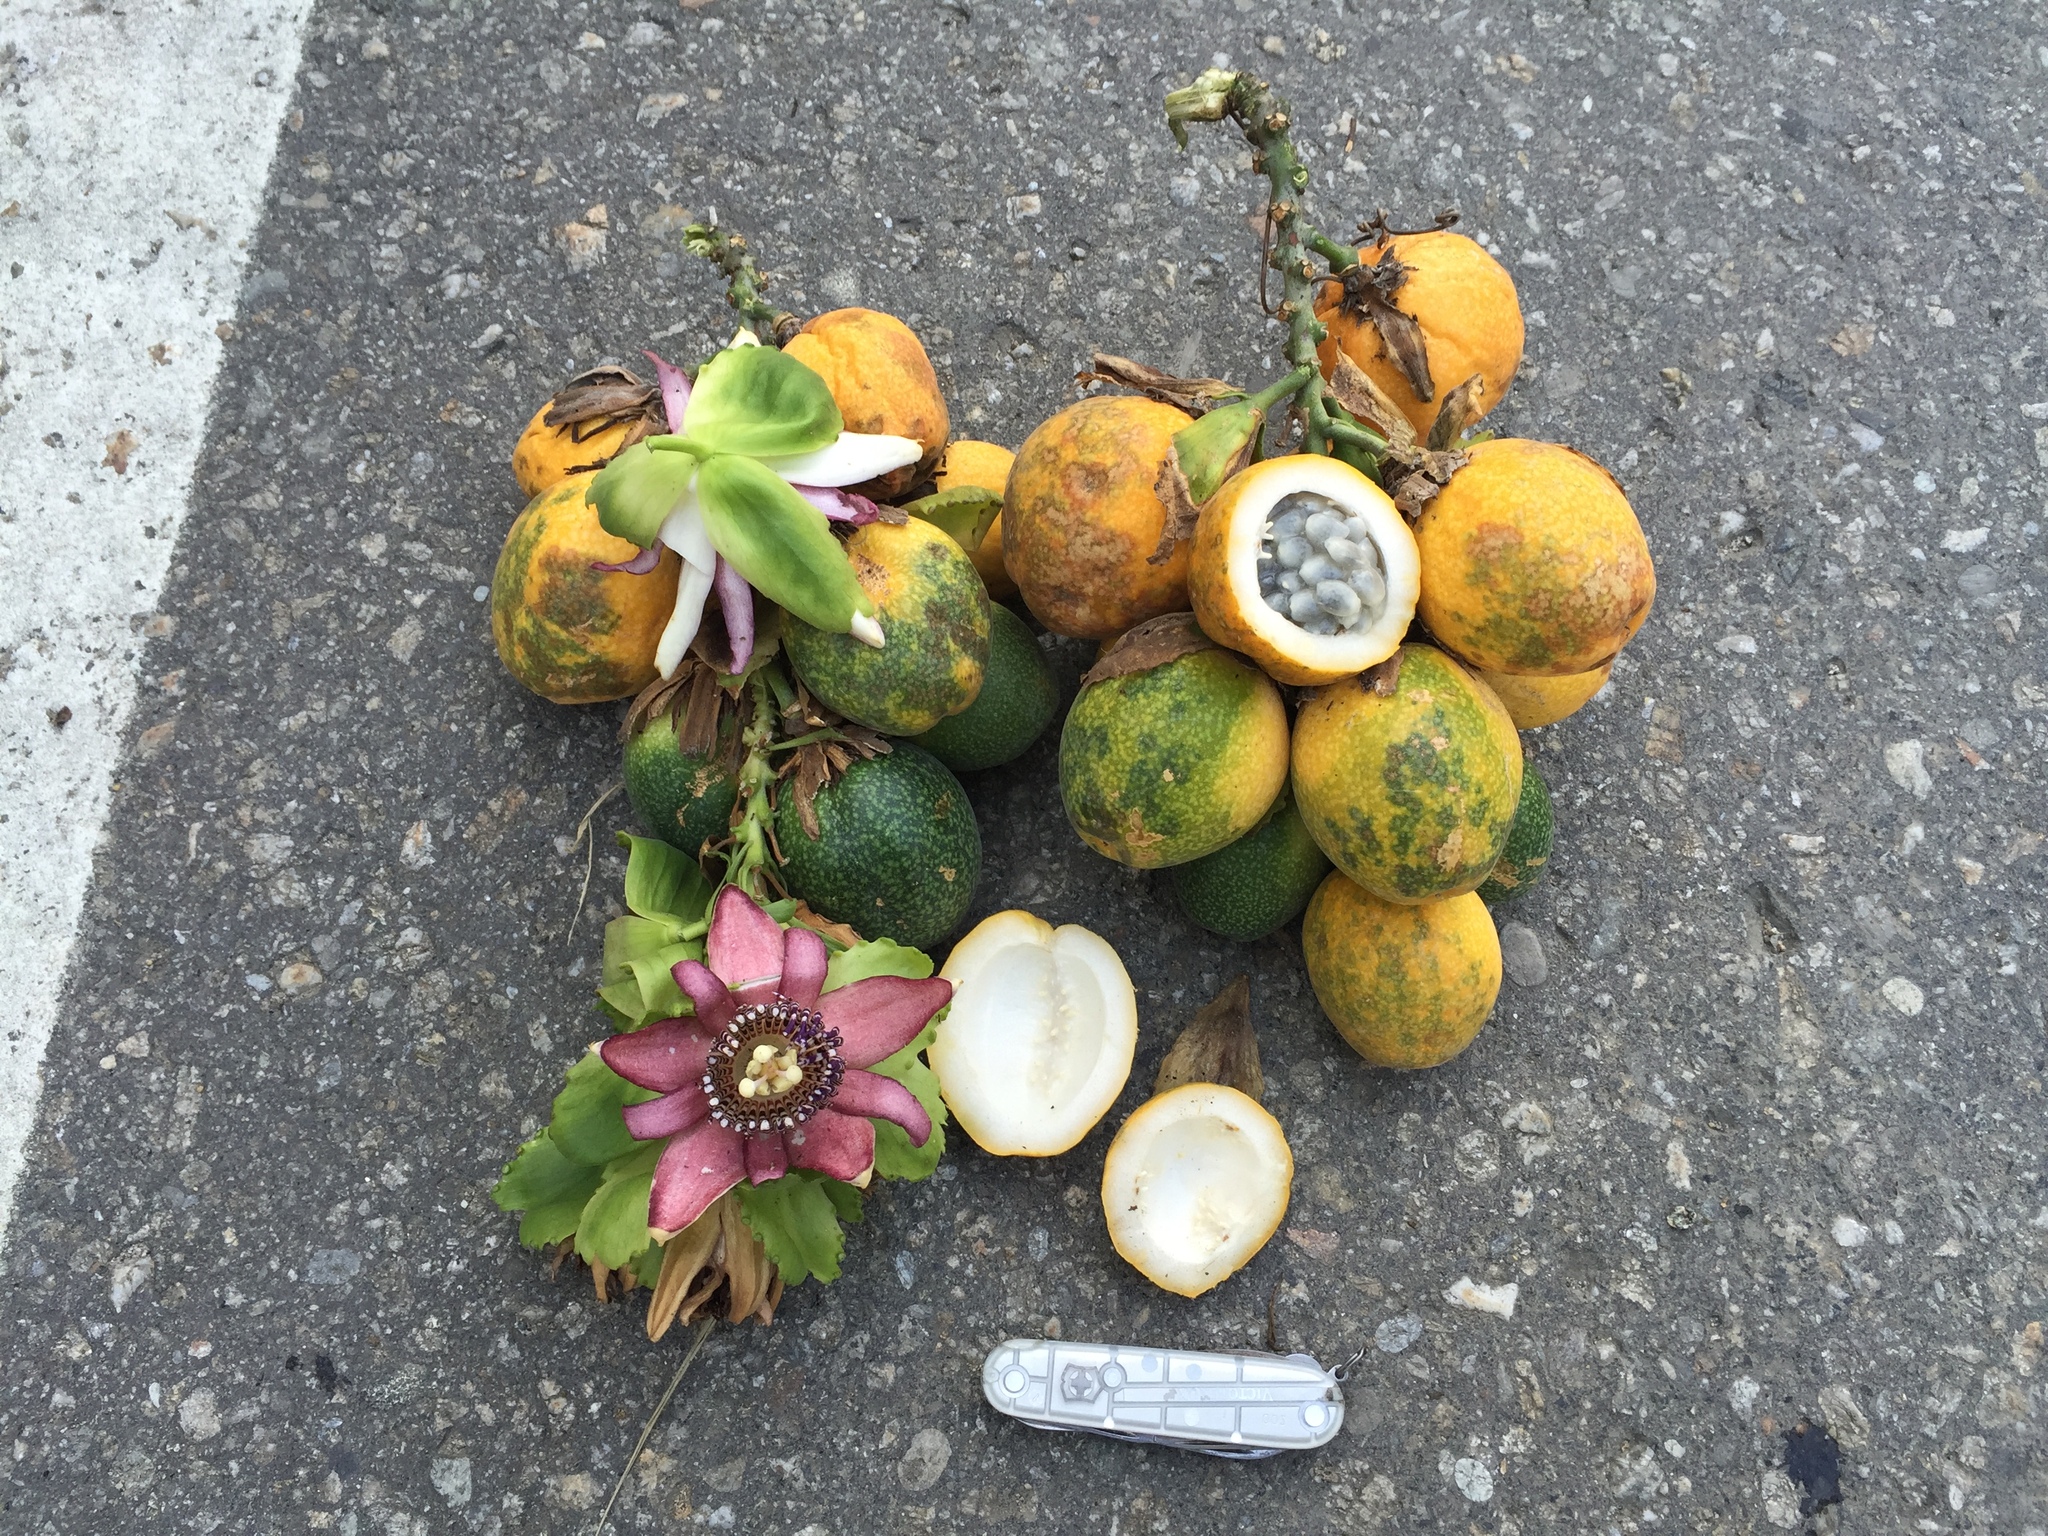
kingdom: Plantae
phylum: Tracheophyta
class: Magnoliopsida
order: Malpighiales
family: Passifloraceae
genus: Passiflora
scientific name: Passiflora ambigua
